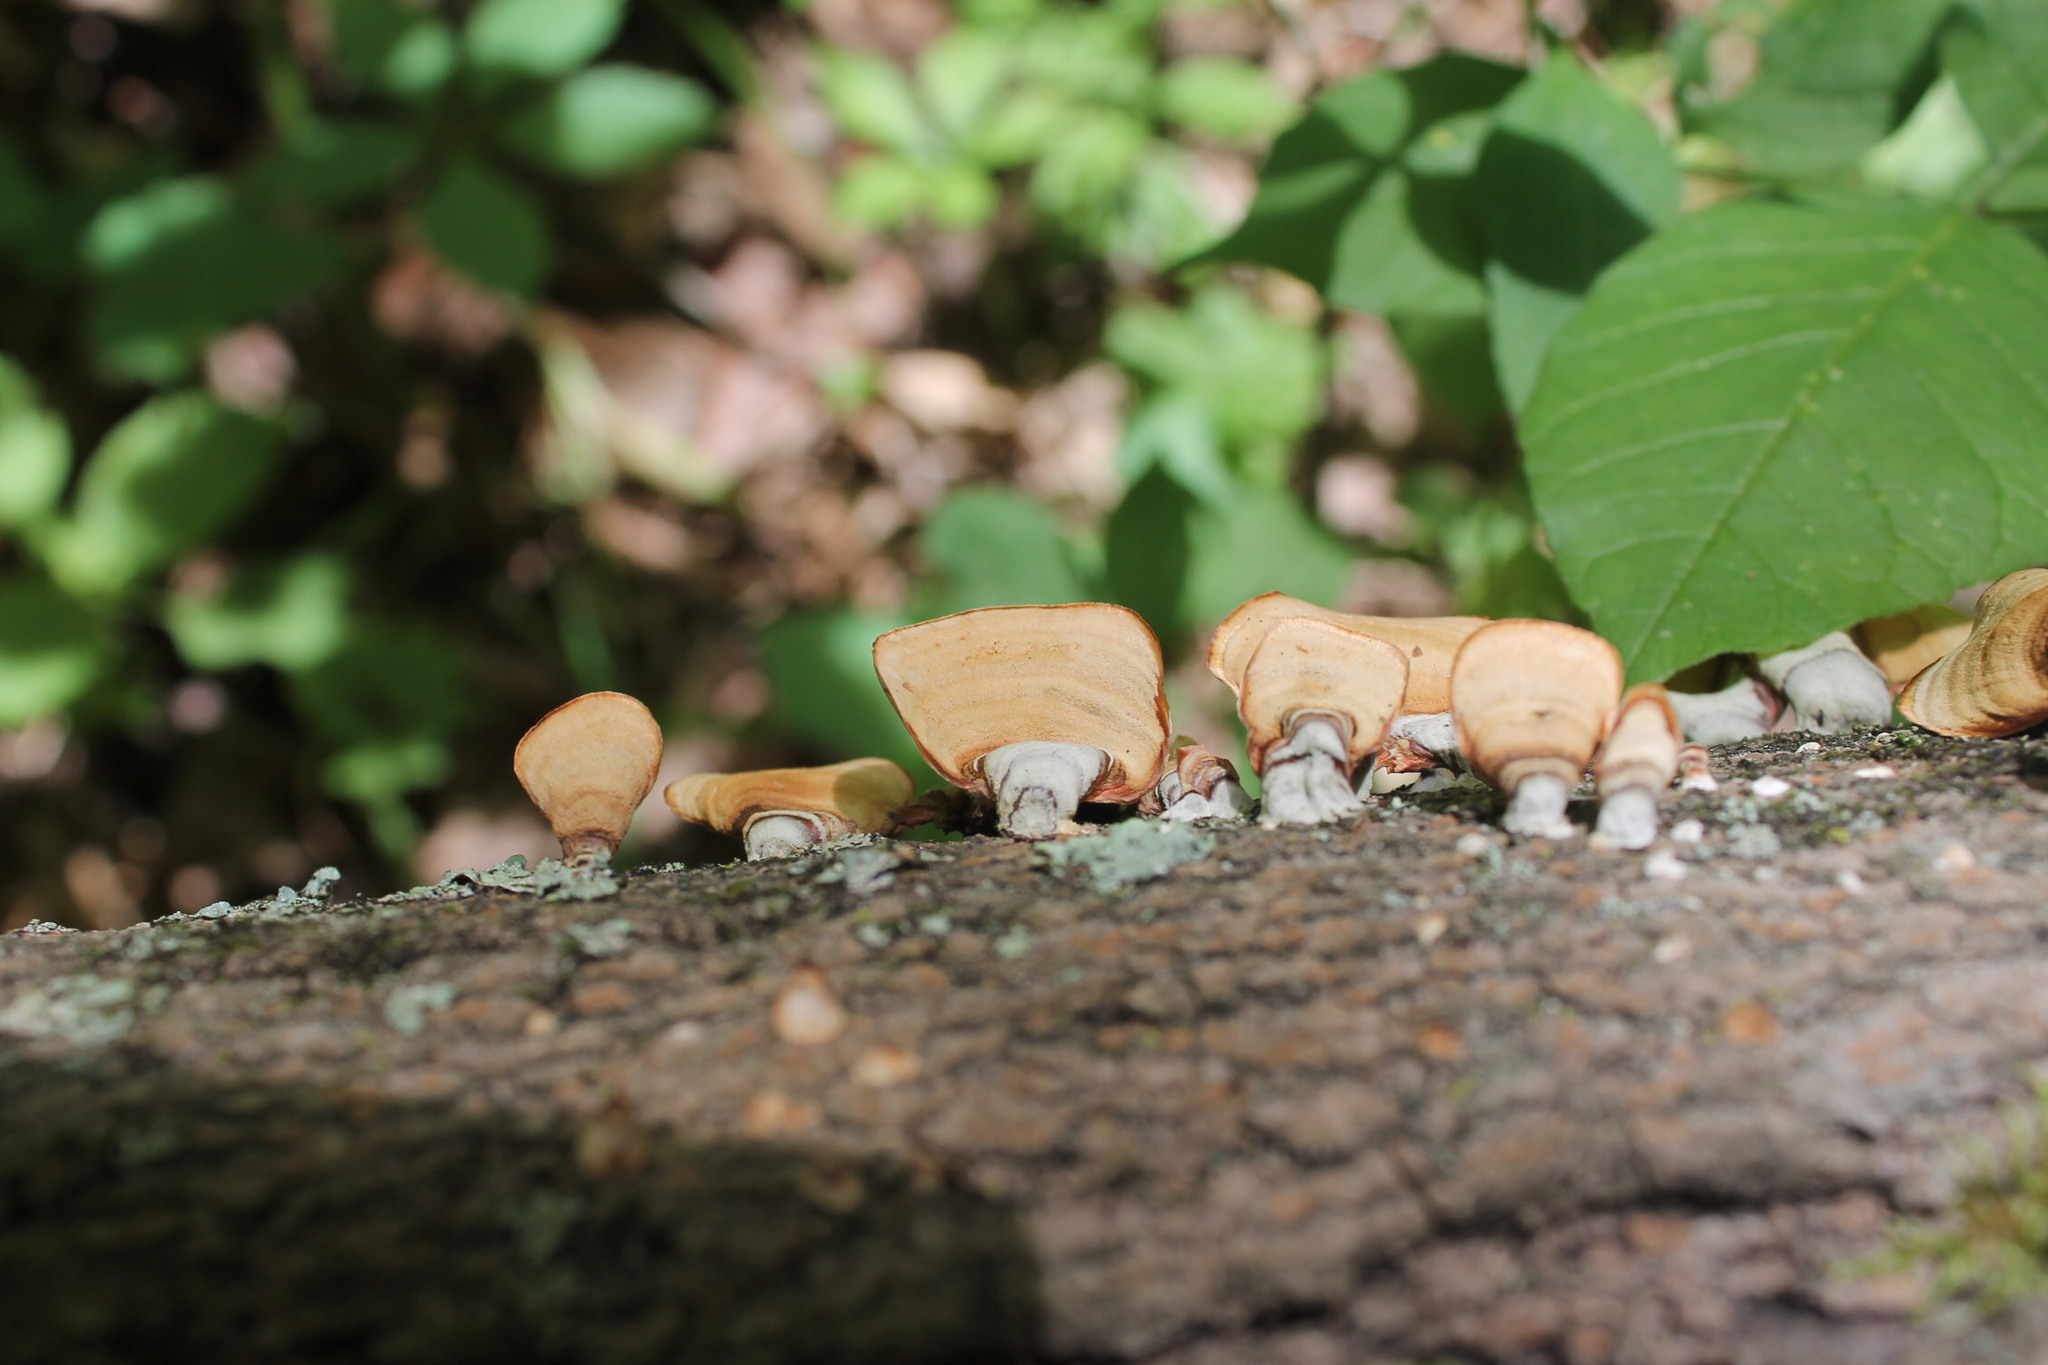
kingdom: Fungi
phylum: Basidiomycota
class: Agaricomycetes
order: Russulales
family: Stereaceae
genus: Stereum
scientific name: Stereum lobatum
